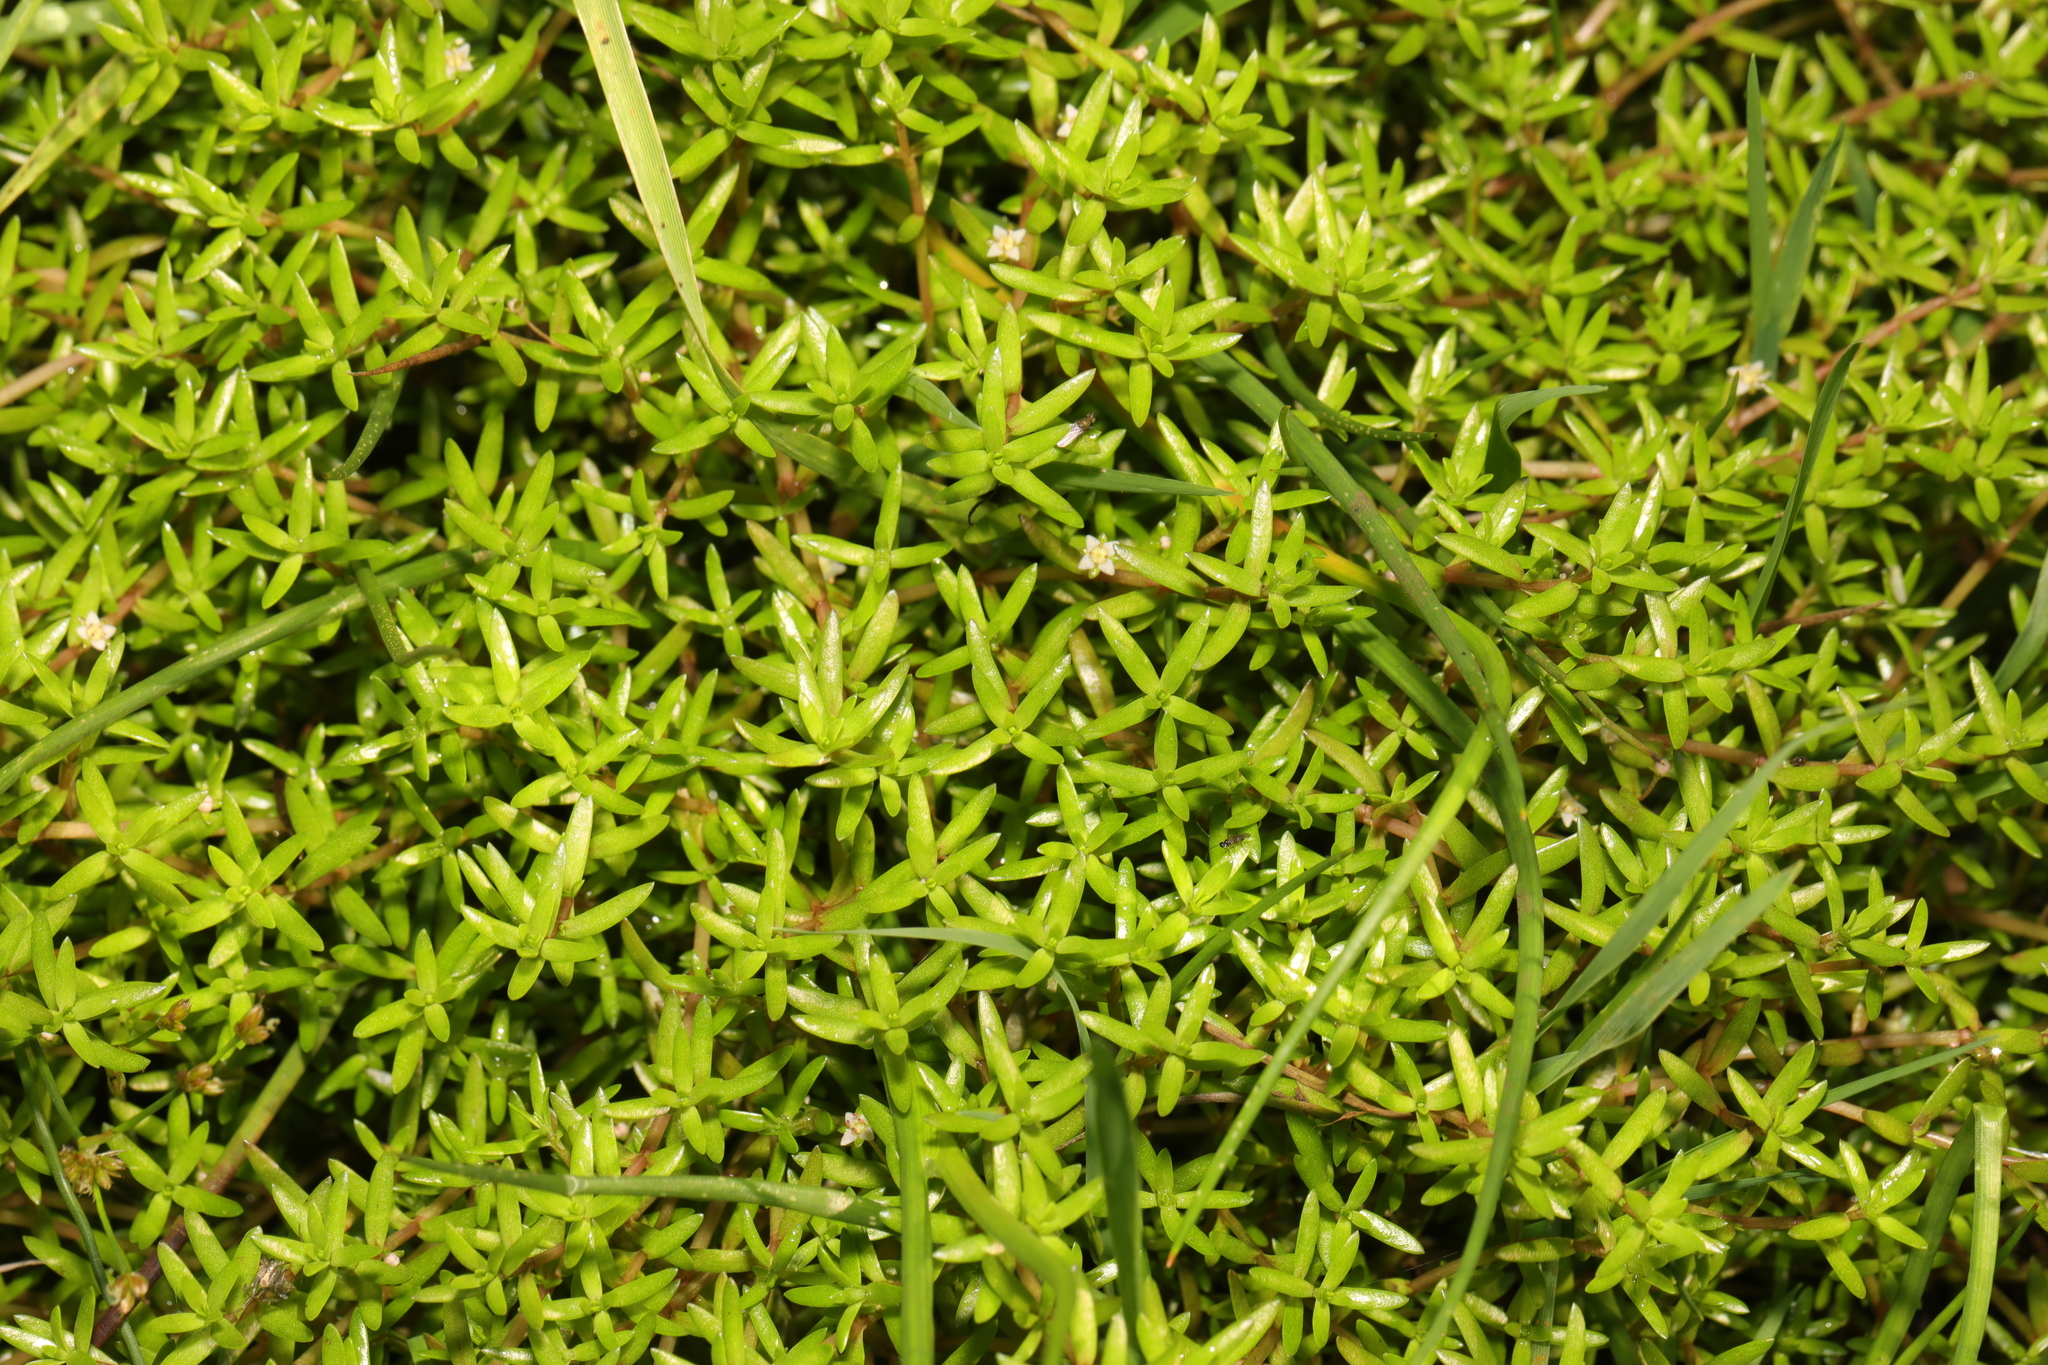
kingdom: Plantae
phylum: Tracheophyta
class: Magnoliopsida
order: Saxifragales
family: Crassulaceae
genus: Crassula
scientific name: Crassula helmsii
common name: New zealand pigmyweed
